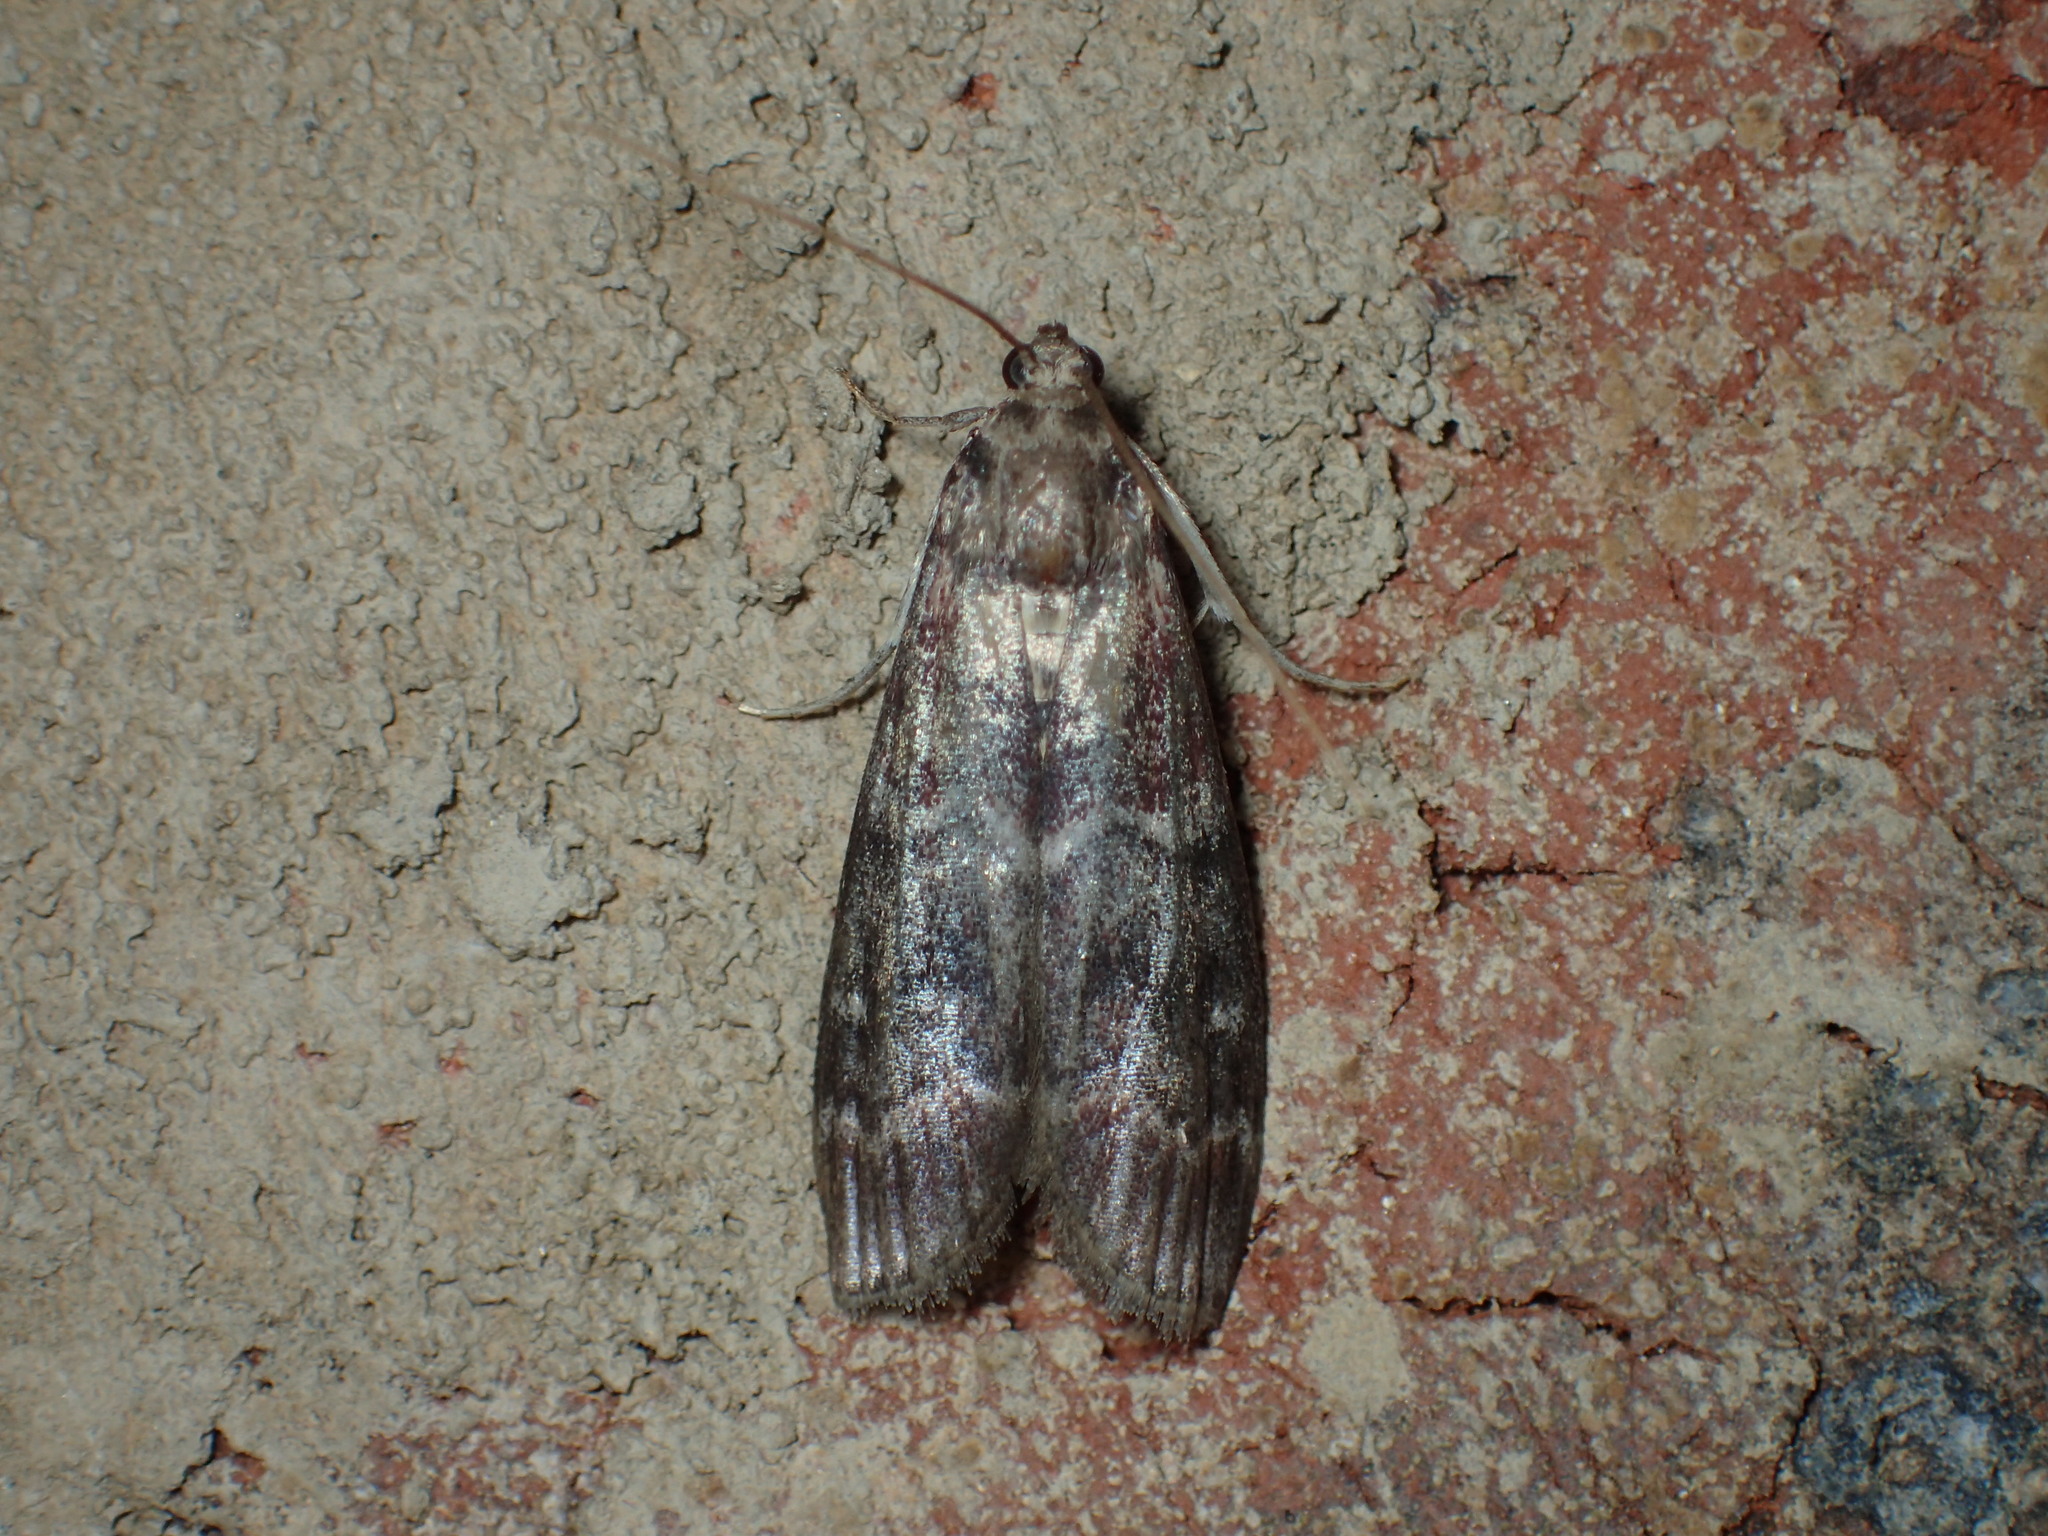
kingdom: Animalia
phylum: Arthropoda
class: Insecta
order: Lepidoptera
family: Pyralidae
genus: Euzophera
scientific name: Euzophera ostricolorella
